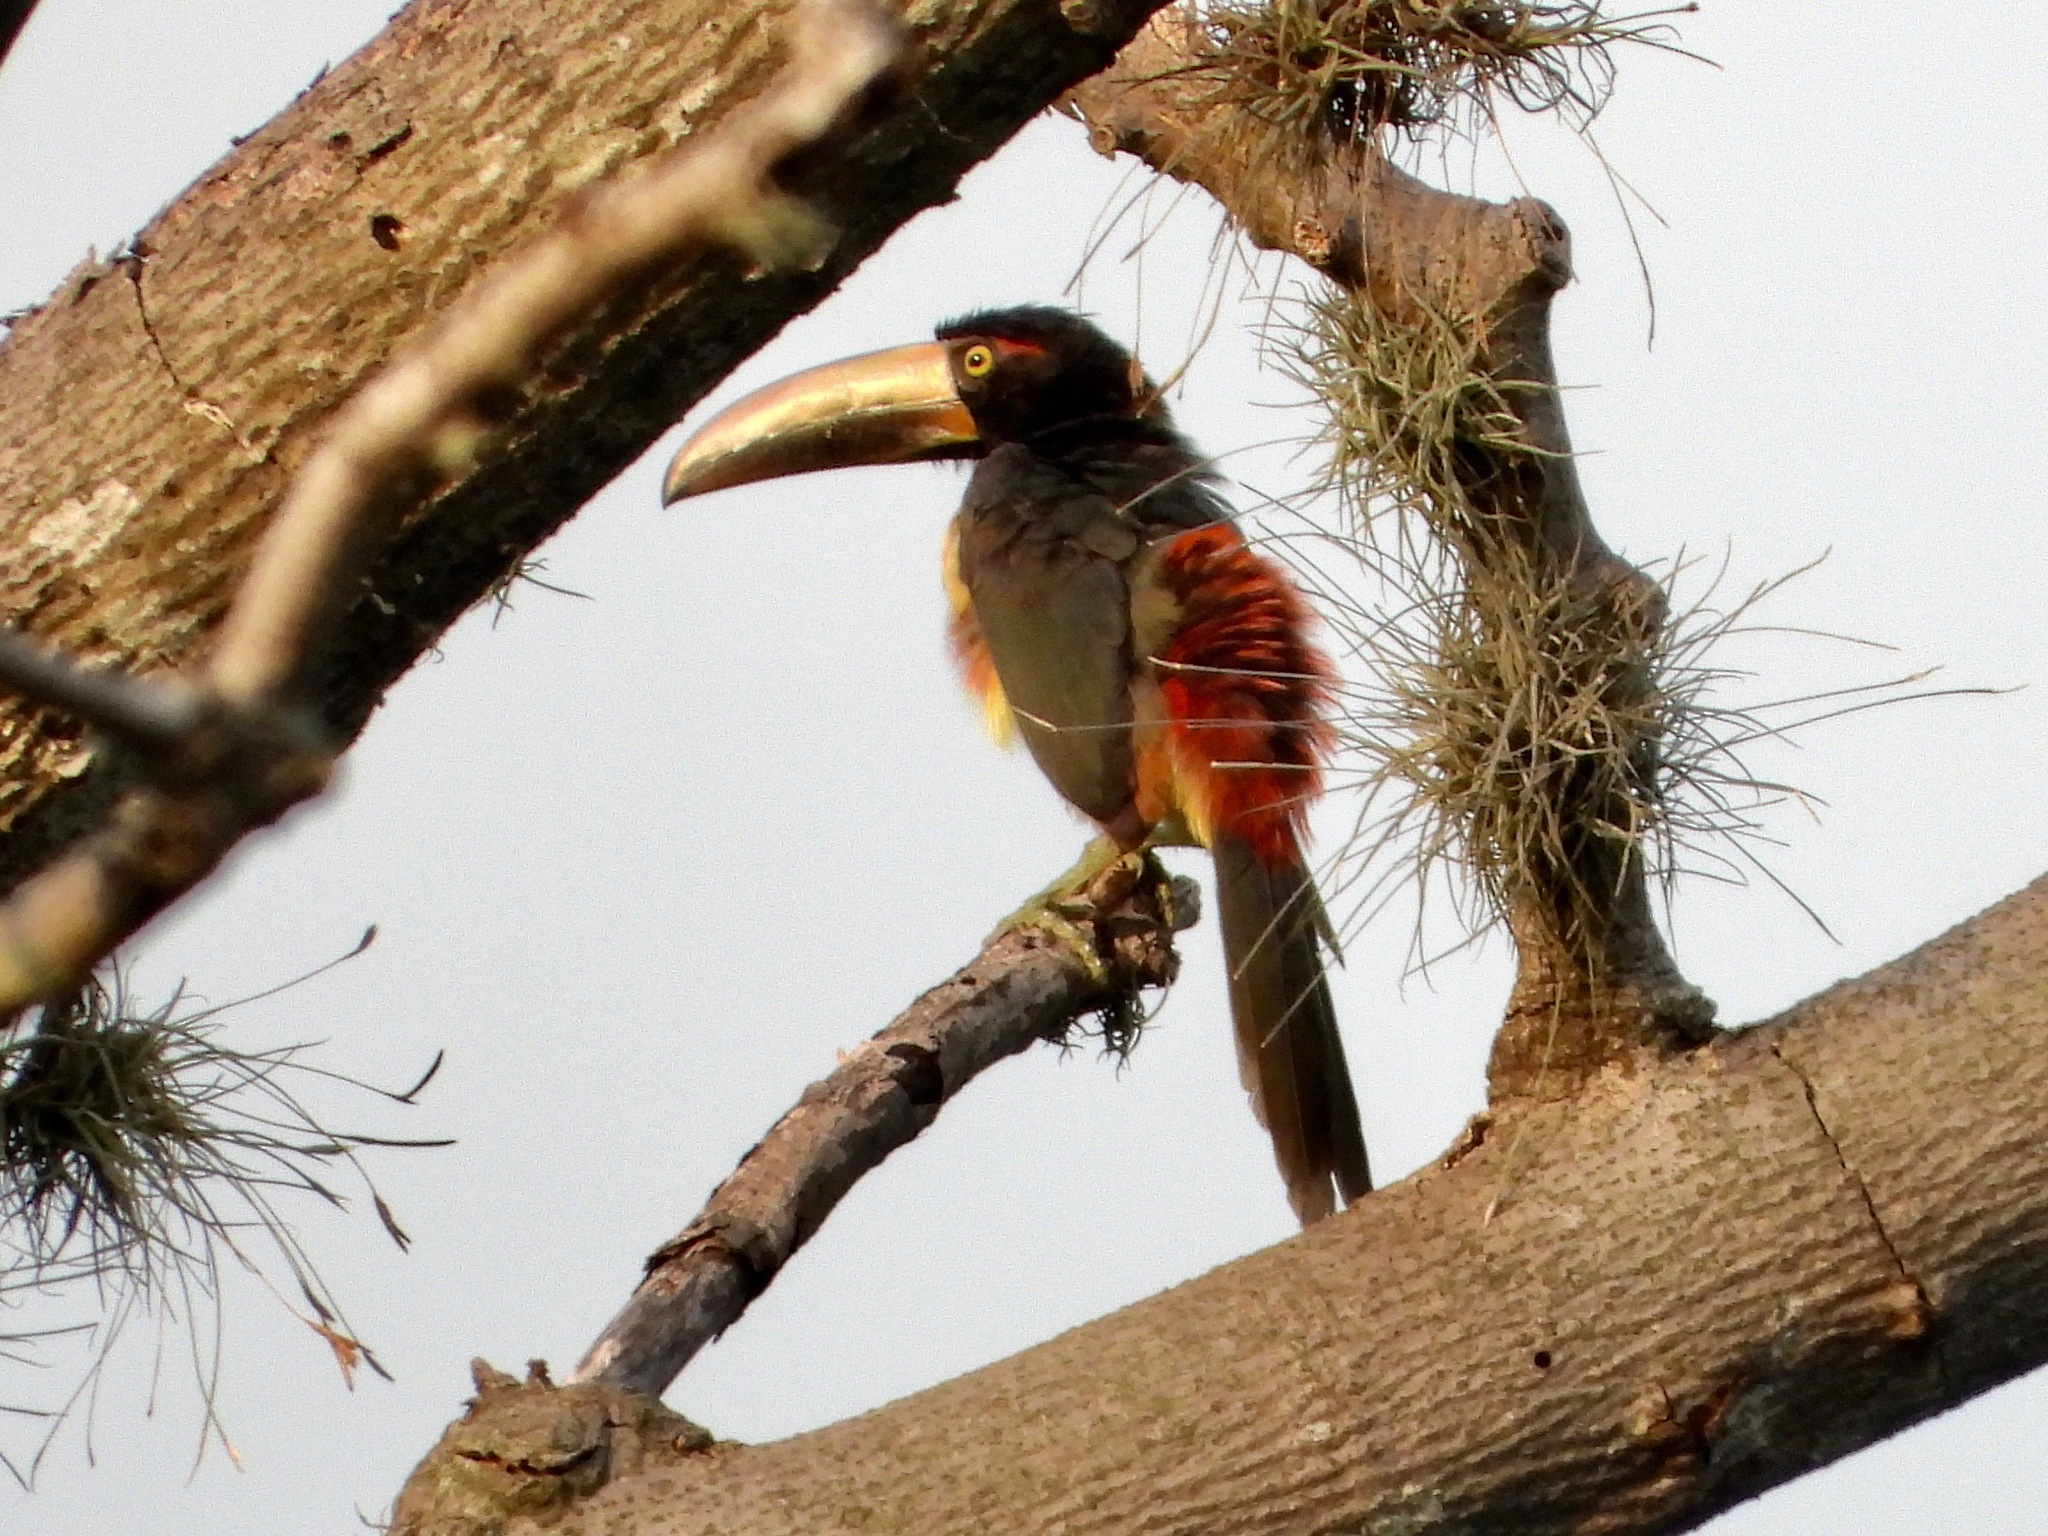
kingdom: Animalia
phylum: Chordata
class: Aves
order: Piciformes
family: Ramphastidae
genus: Pteroglossus
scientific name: Pteroglossus torquatus
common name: Collared aracari
